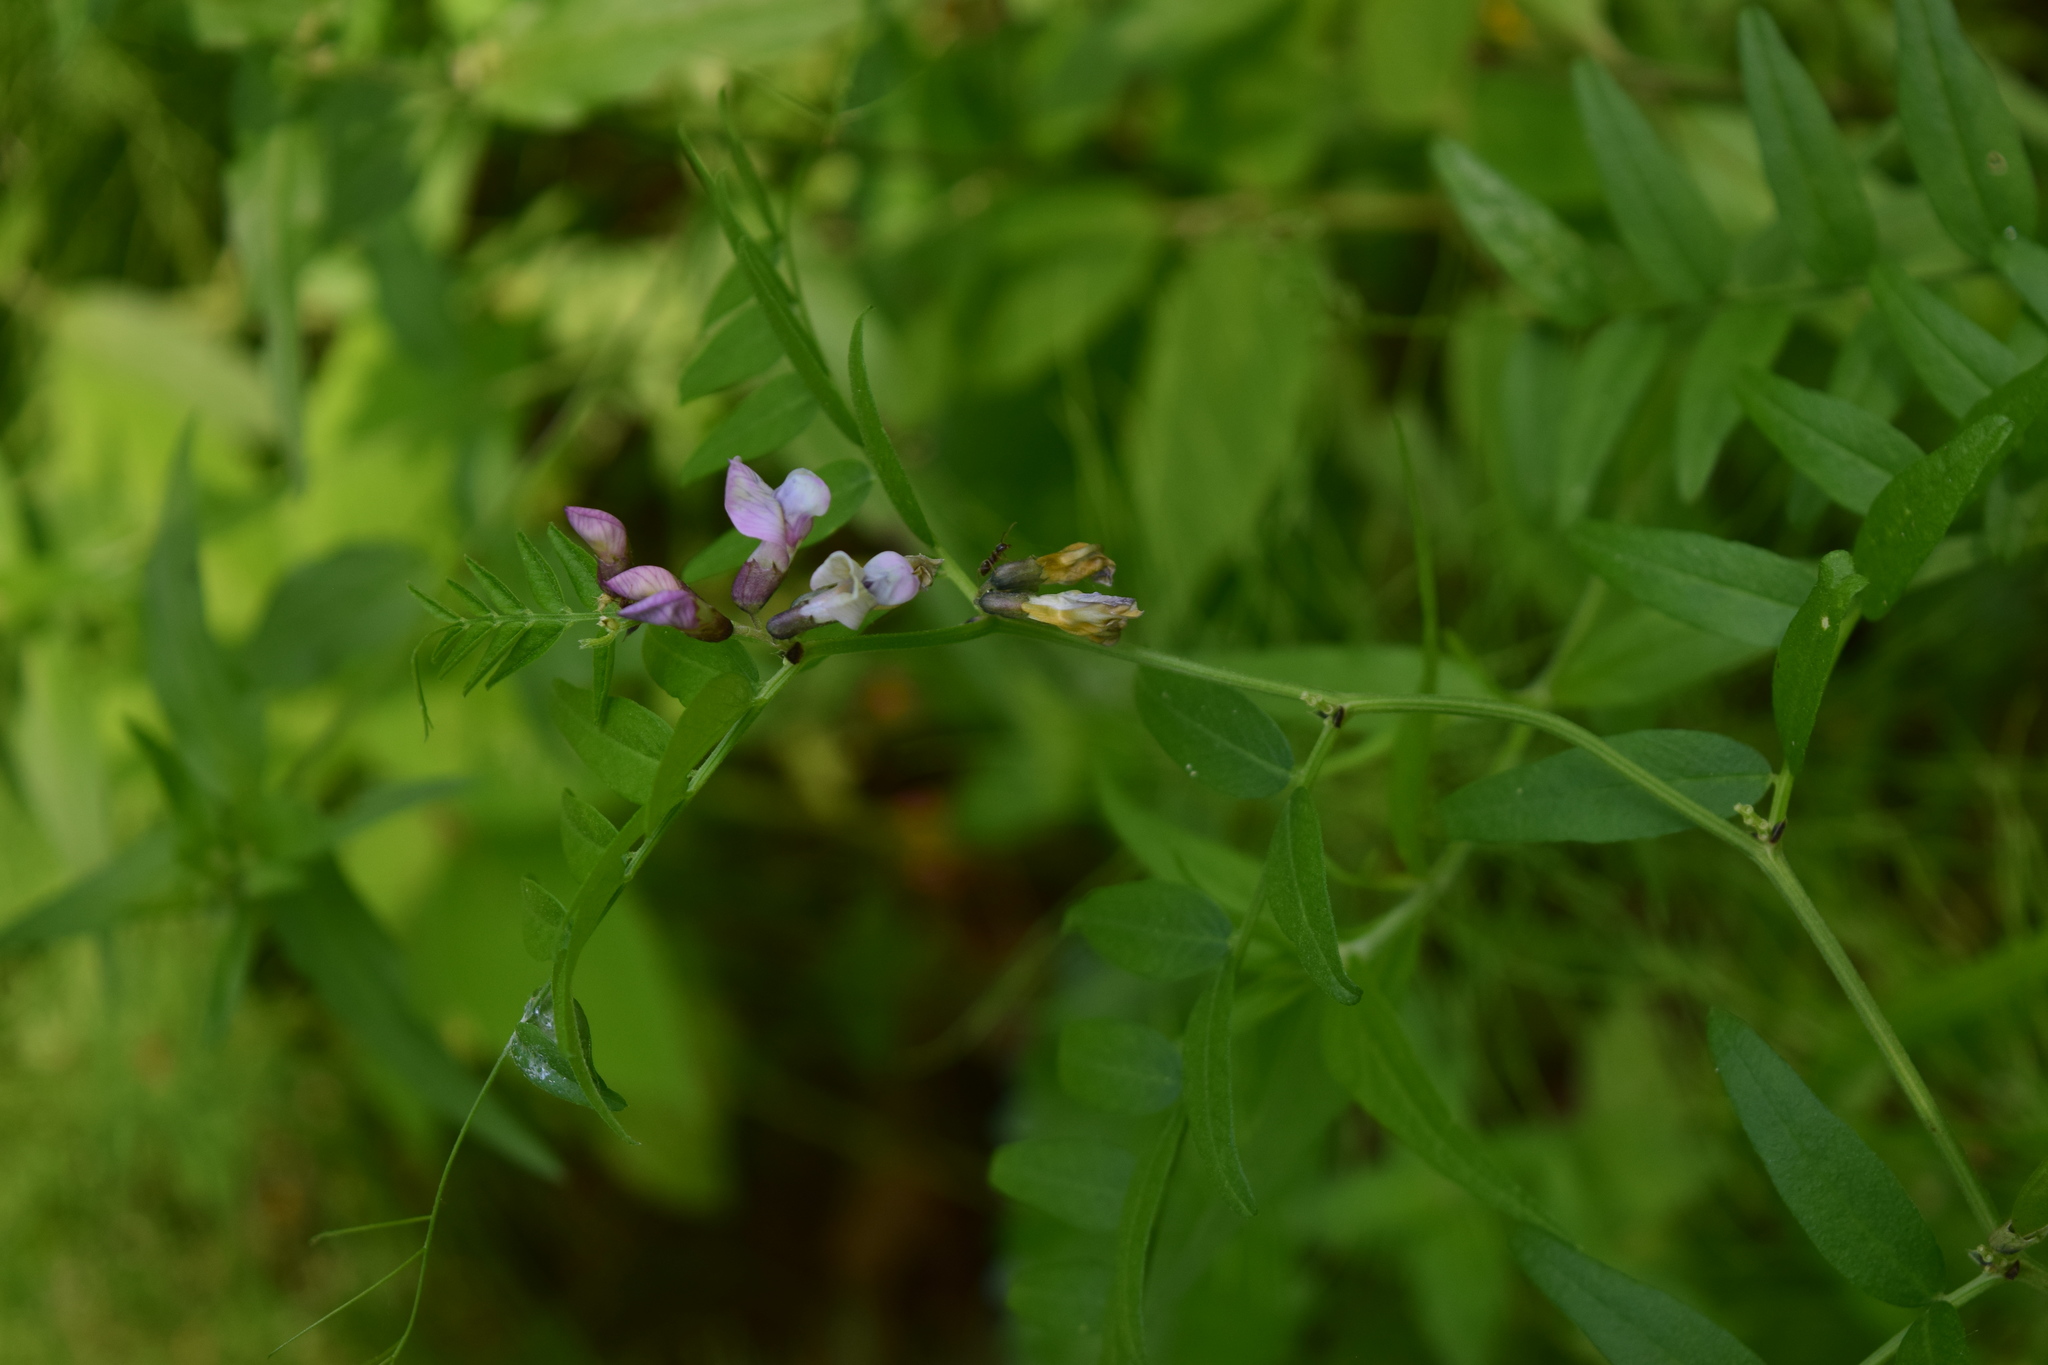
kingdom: Plantae
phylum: Tracheophyta
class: Magnoliopsida
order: Fabales
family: Fabaceae
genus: Vicia
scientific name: Vicia sepium
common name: Bush vetch
